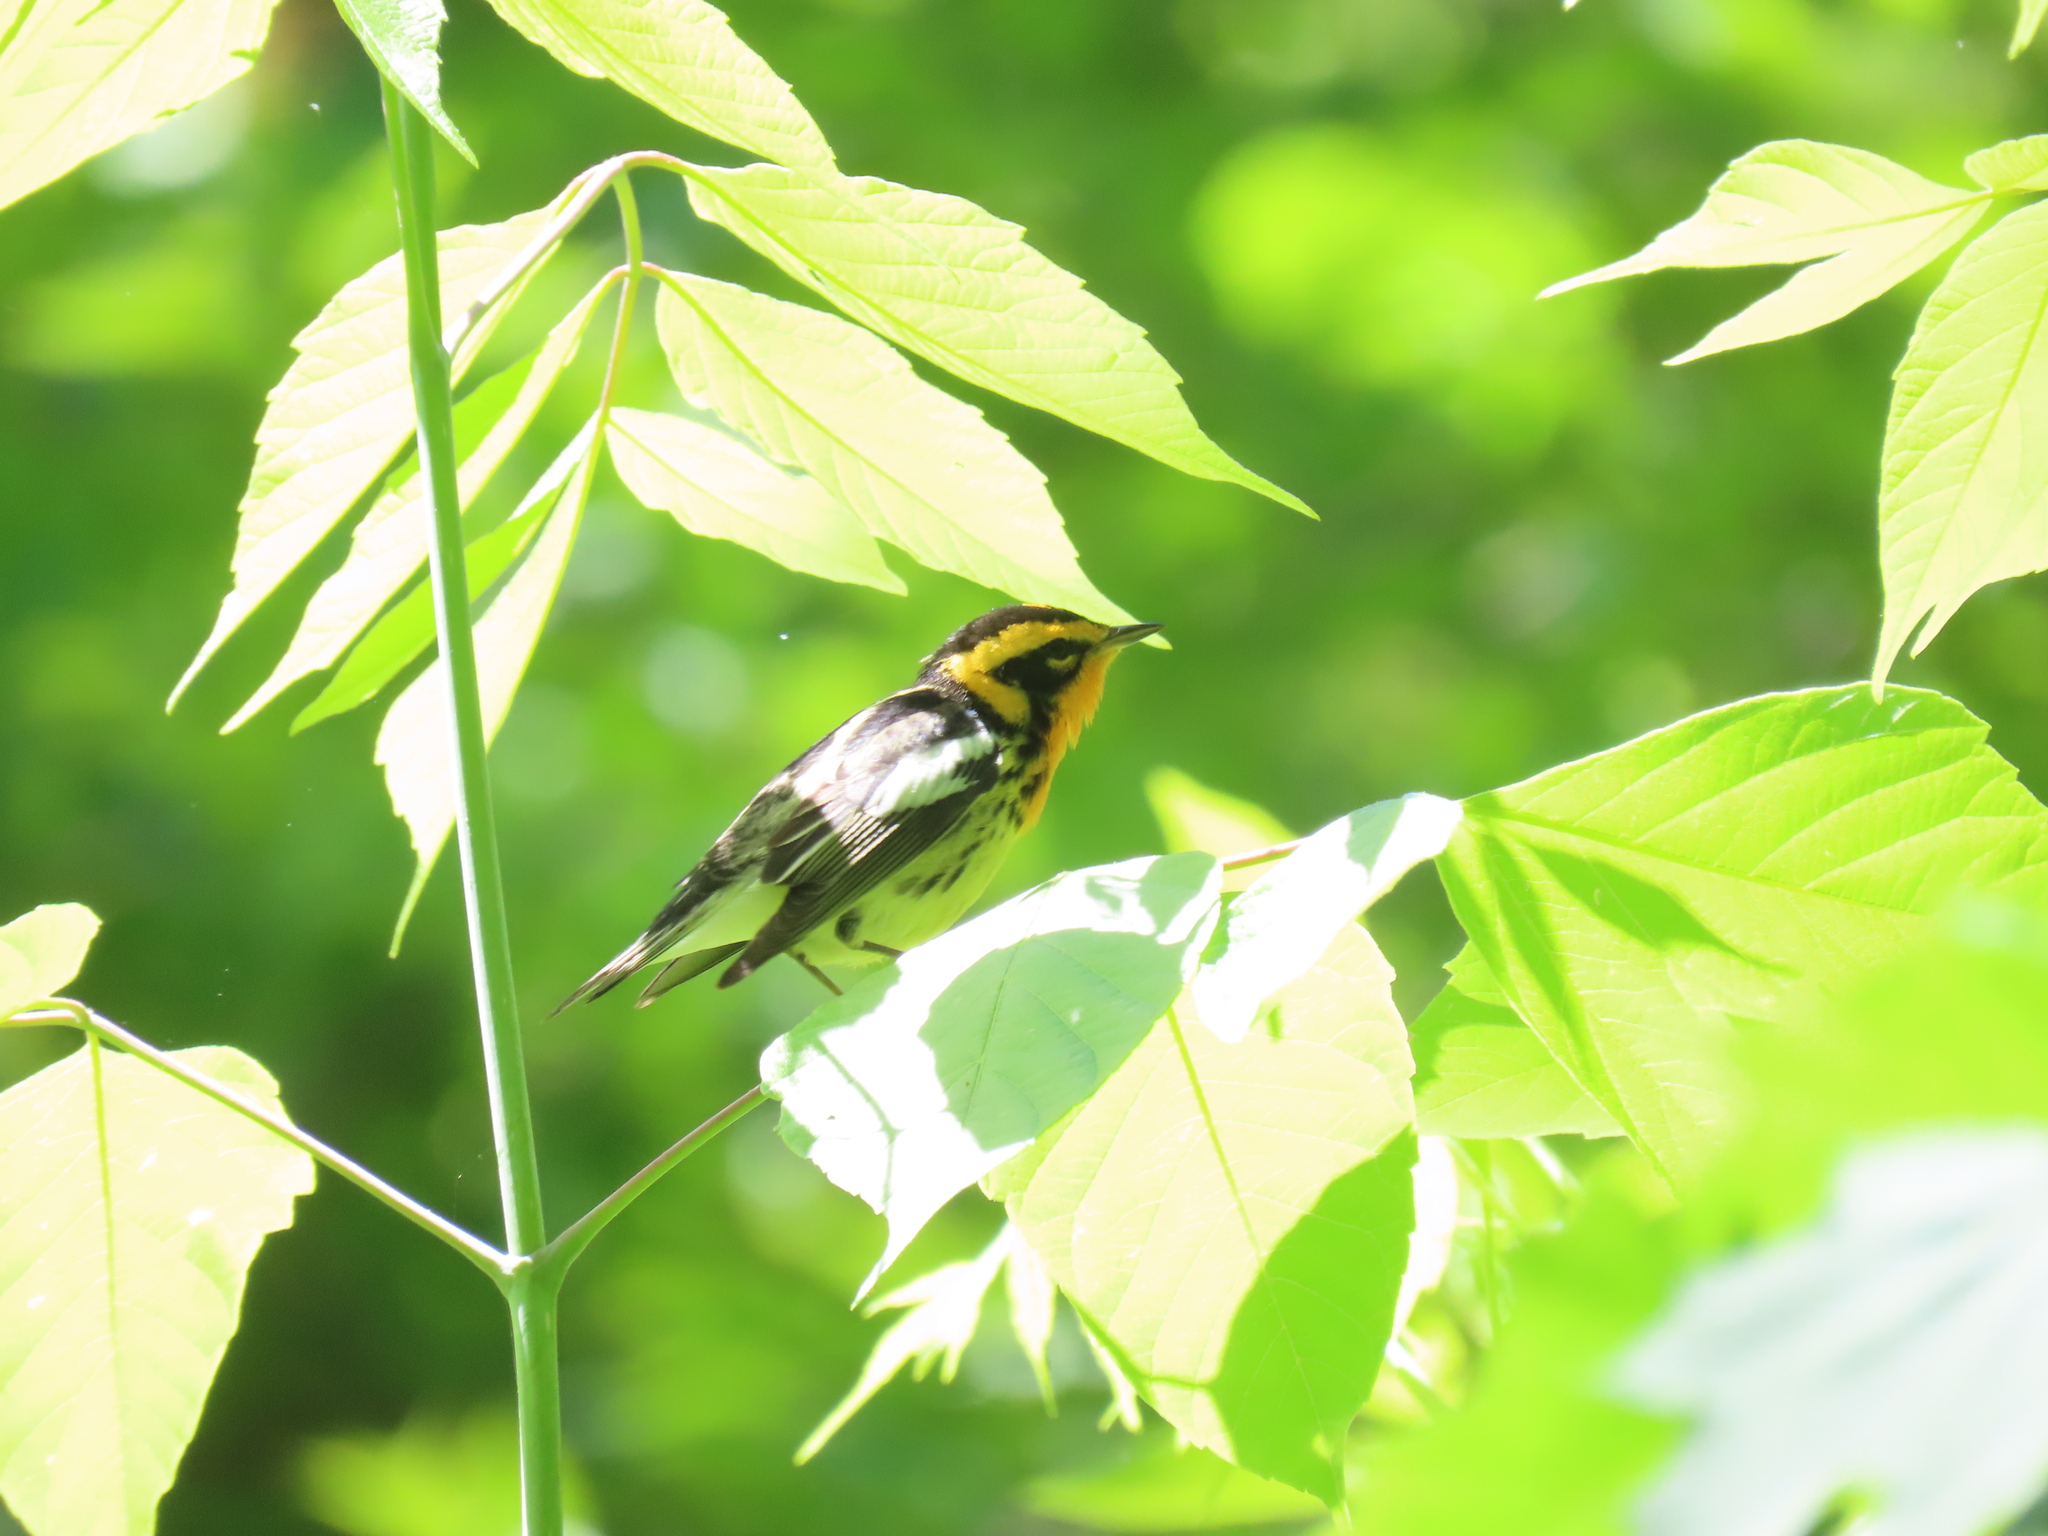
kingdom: Animalia
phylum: Chordata
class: Aves
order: Passeriformes
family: Parulidae
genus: Setophaga
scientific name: Setophaga fusca
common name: Blackburnian warbler
